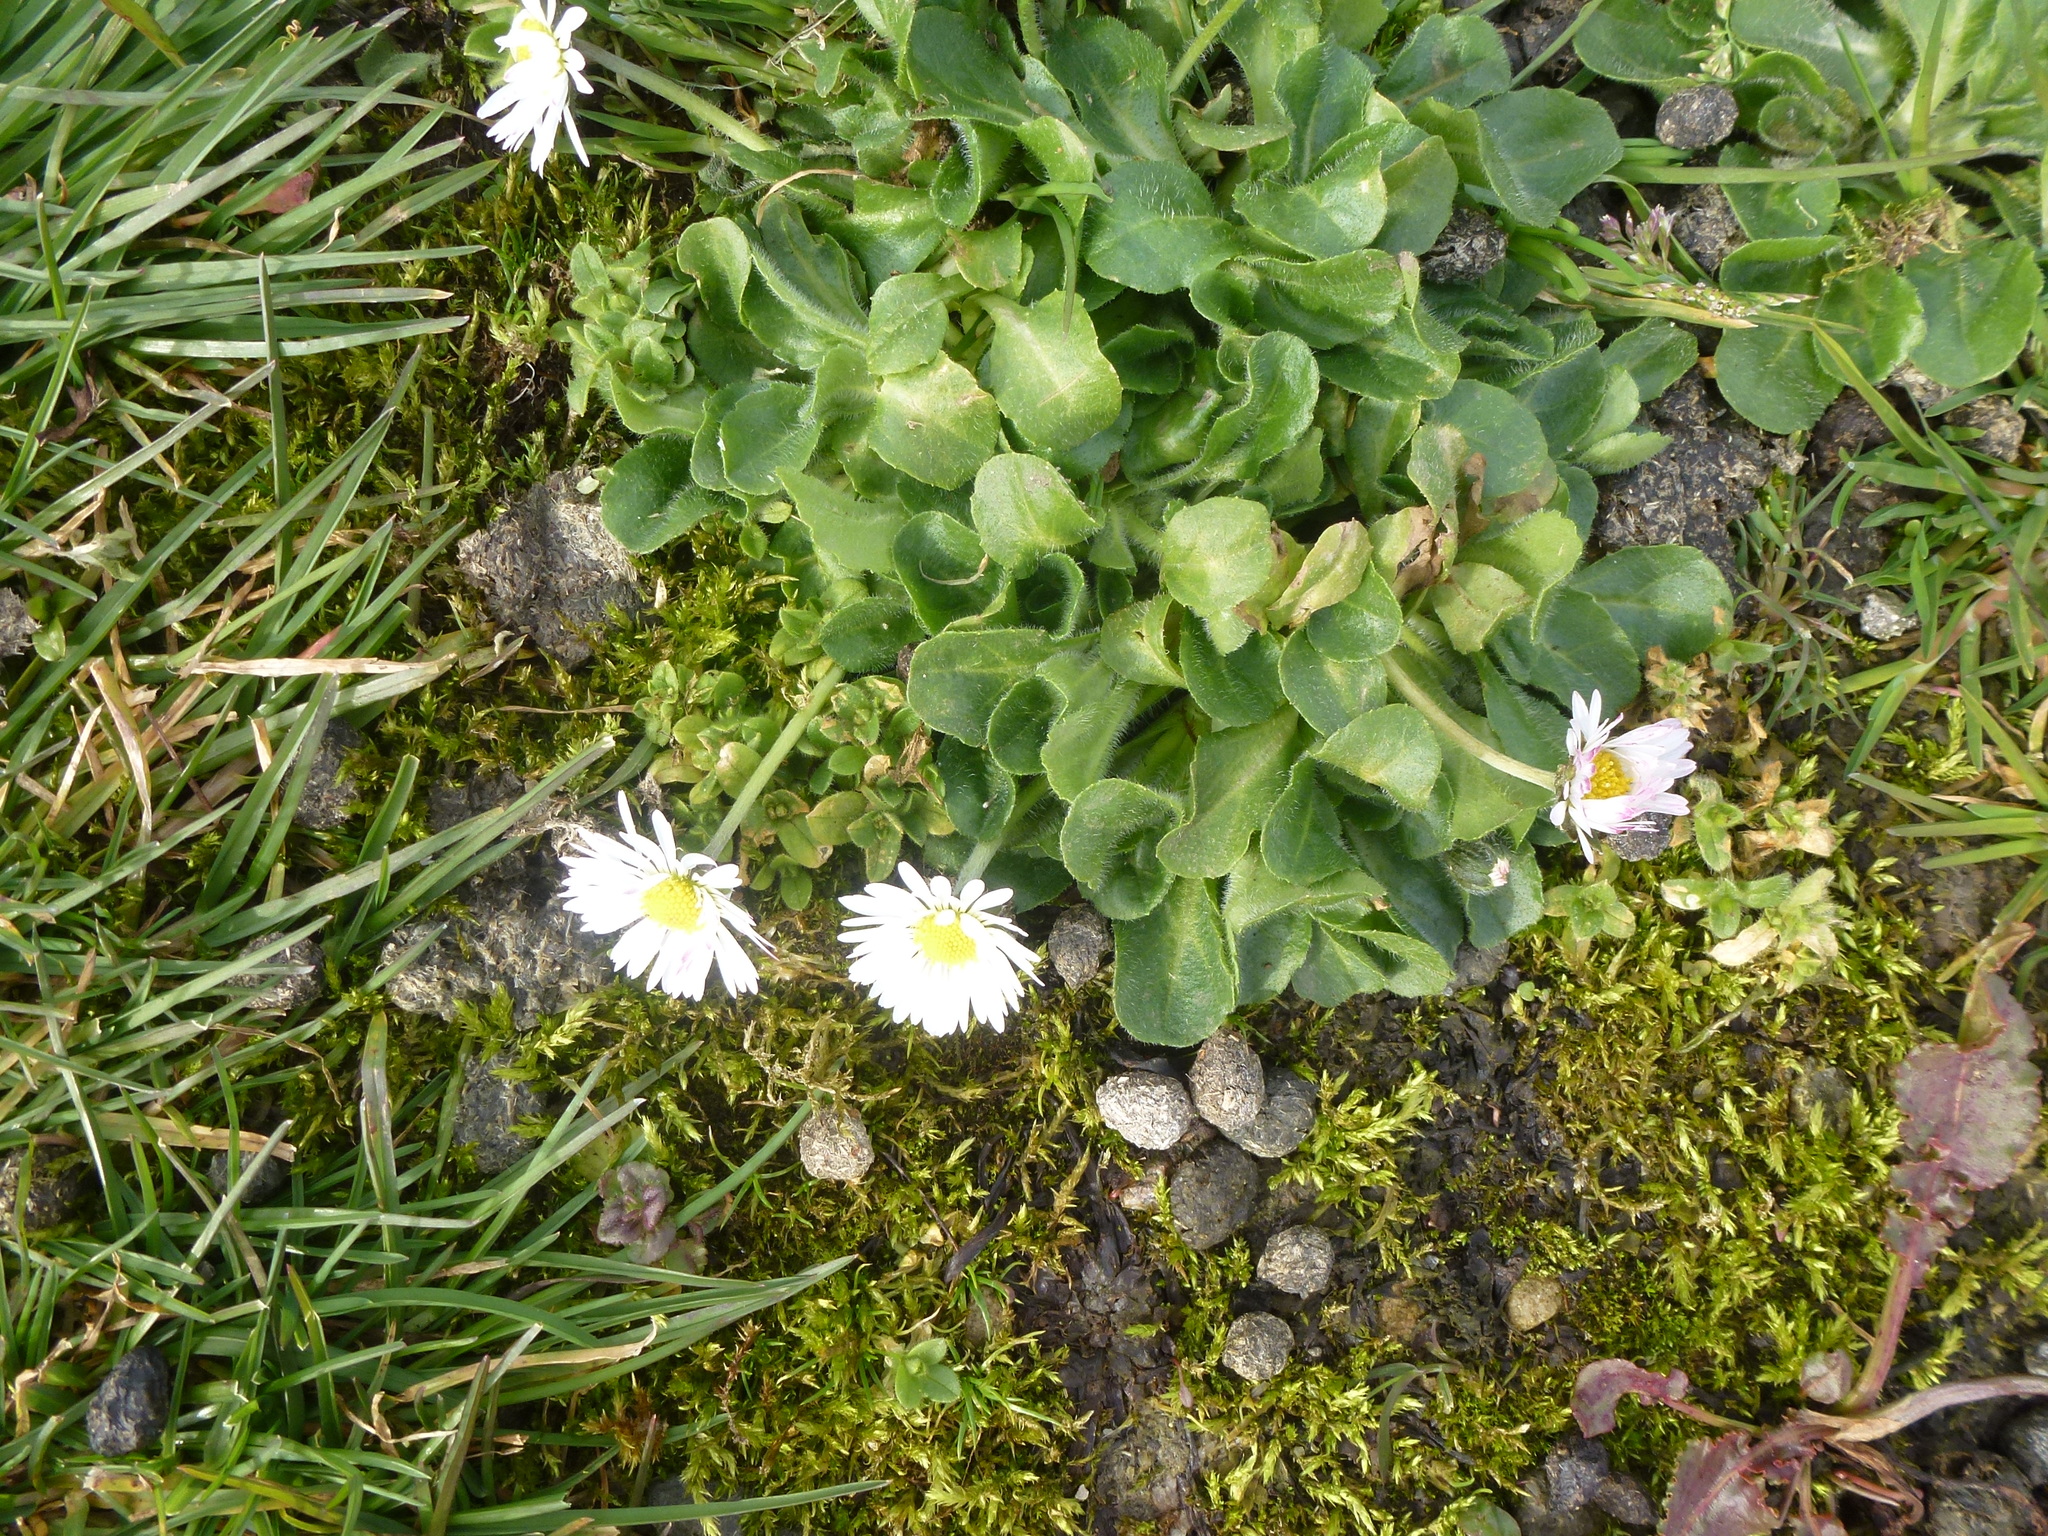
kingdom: Plantae
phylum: Tracheophyta
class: Magnoliopsida
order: Asterales
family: Asteraceae
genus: Bellis
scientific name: Bellis perennis
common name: Lawndaisy
